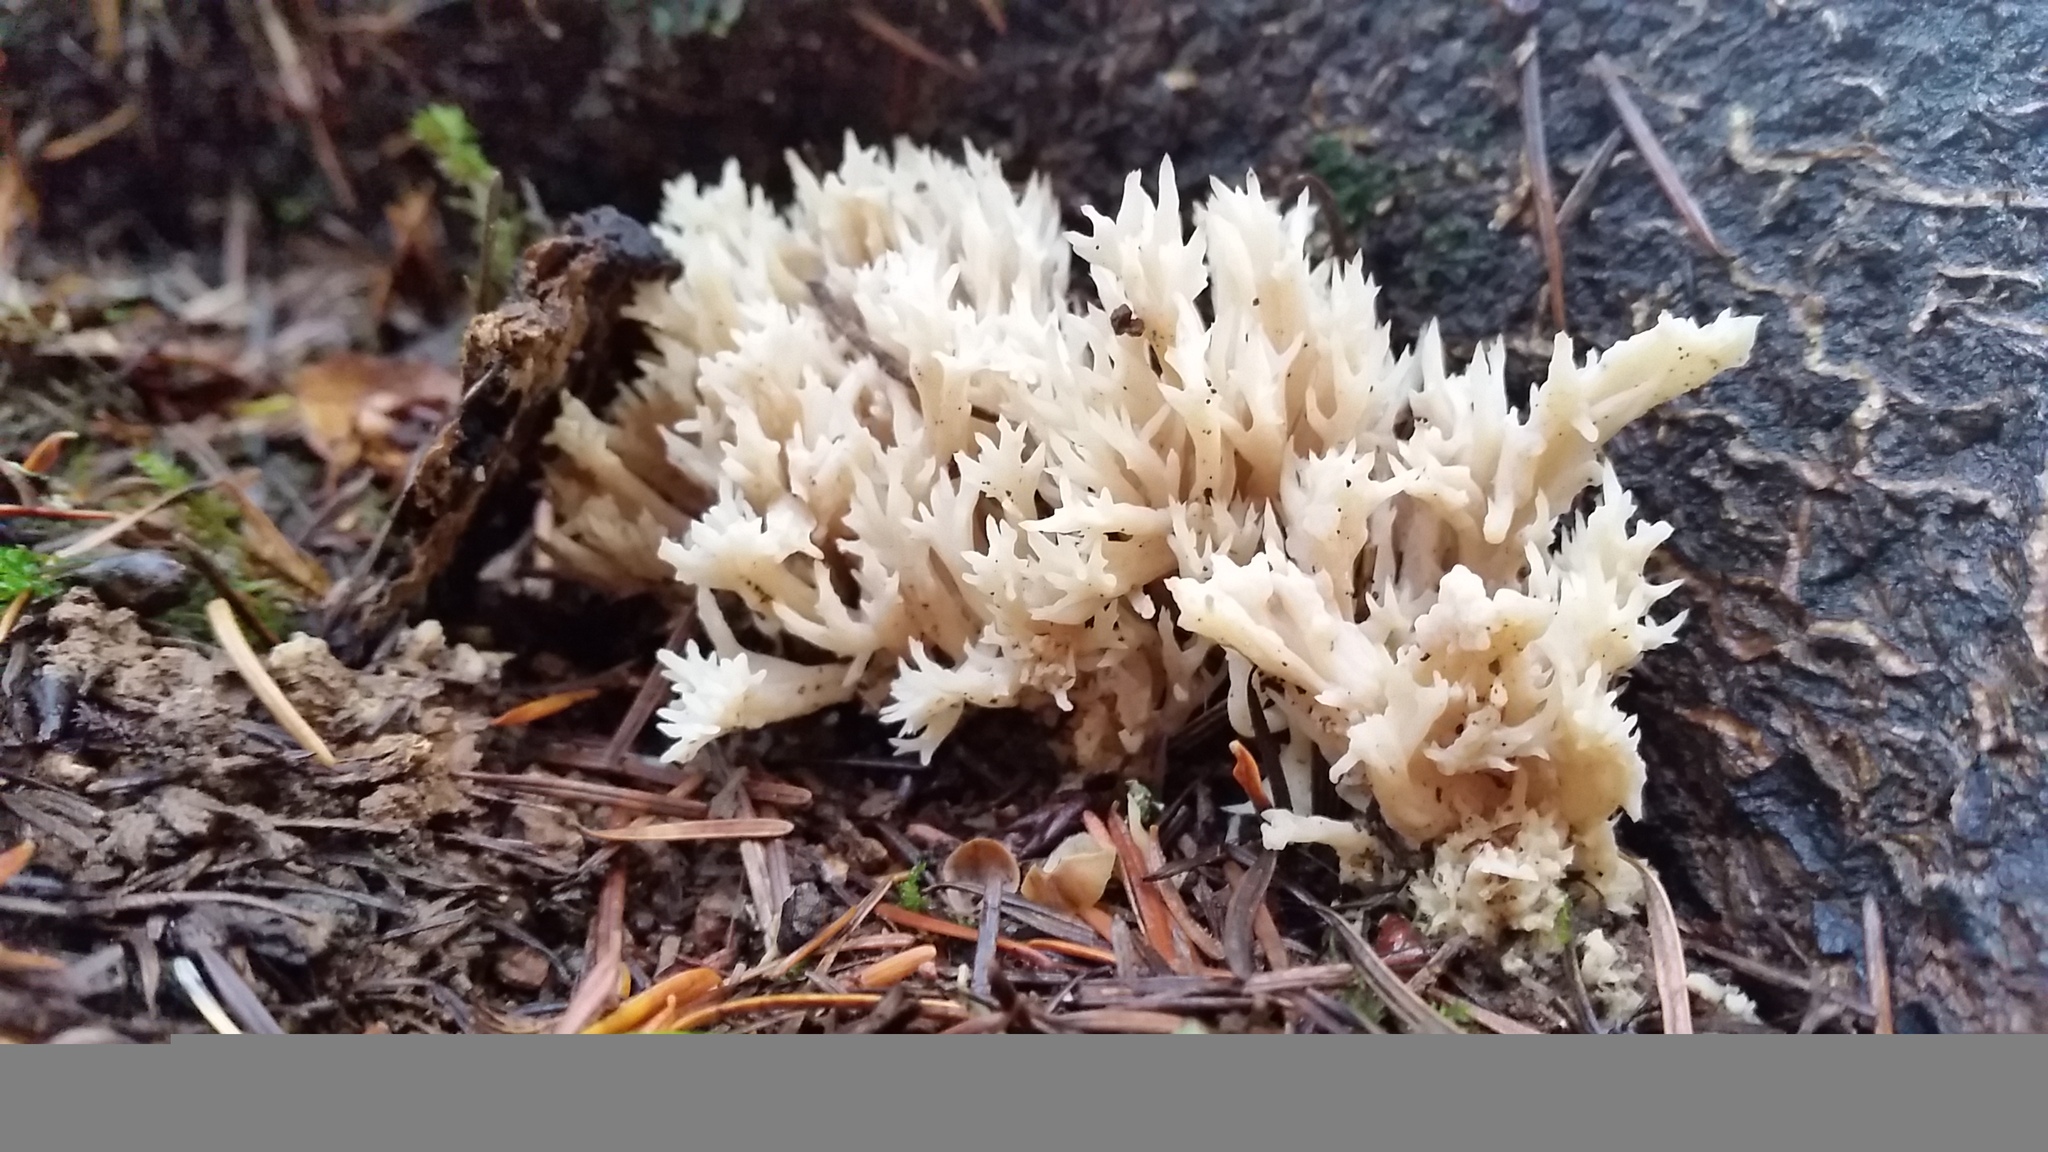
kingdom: Fungi
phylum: Basidiomycota
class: Agaricomycetes
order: Cantharellales
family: Hydnaceae
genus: Clavulina
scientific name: Clavulina coralloides
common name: Crested coral
